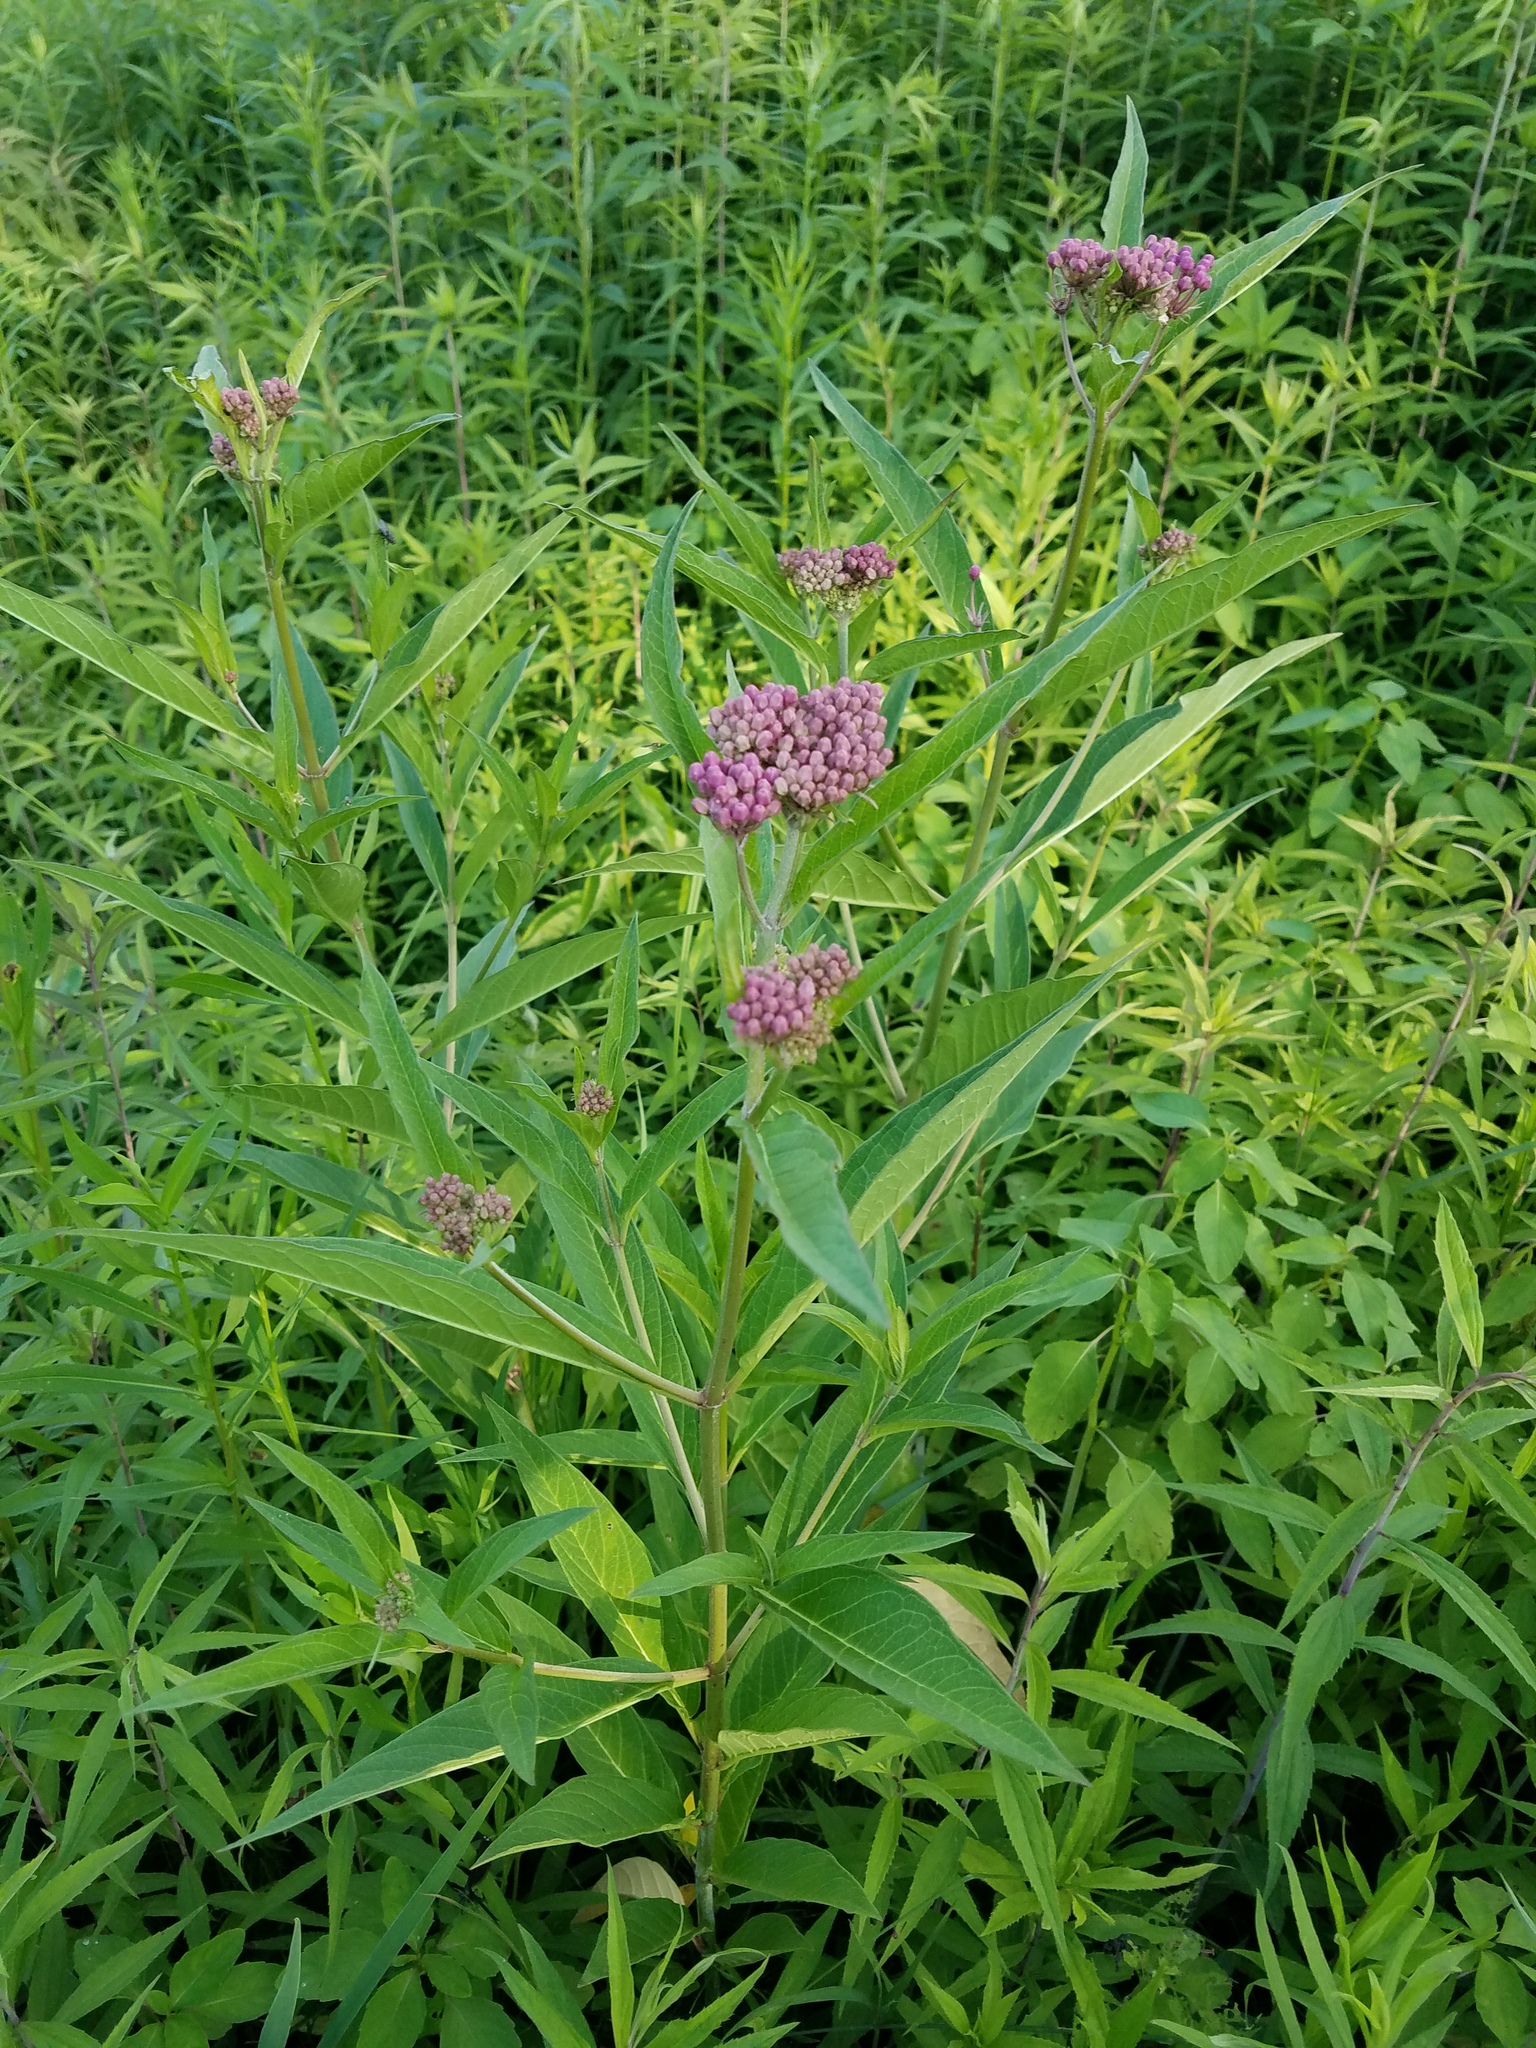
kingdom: Plantae
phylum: Tracheophyta
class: Magnoliopsida
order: Gentianales
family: Apocynaceae
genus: Asclepias
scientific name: Asclepias incarnata
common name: Swamp milkweed
